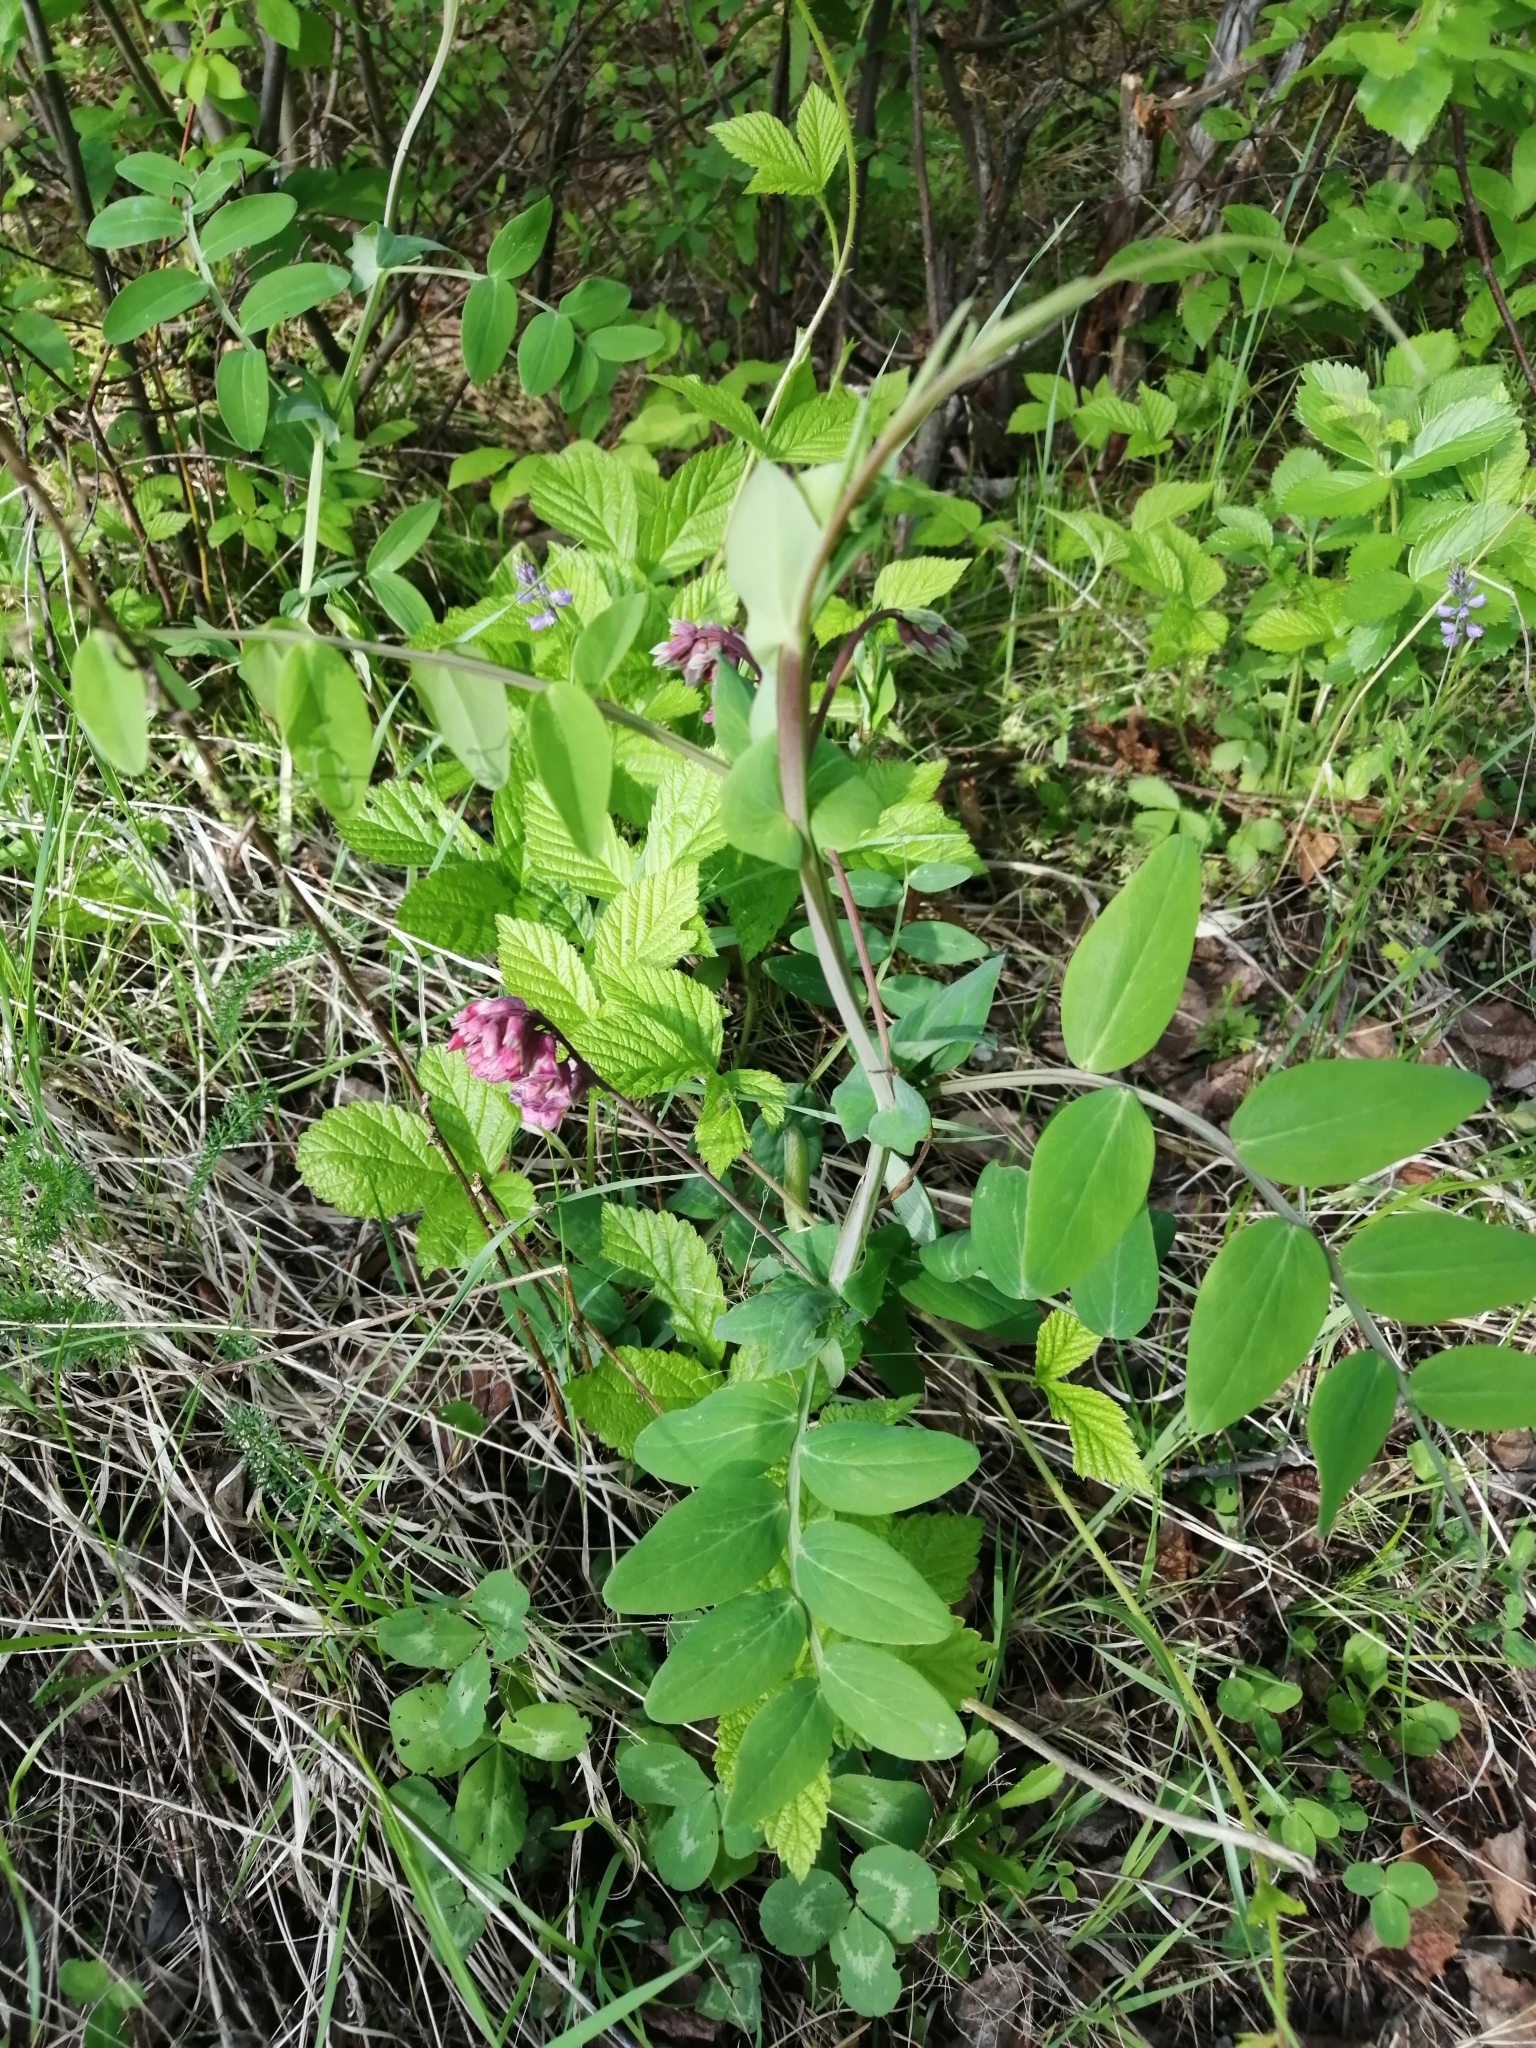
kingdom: Plantae
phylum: Tracheophyta
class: Magnoliopsida
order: Fabales
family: Fabaceae
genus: Lathyrus
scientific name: Lathyrus pisiformis
